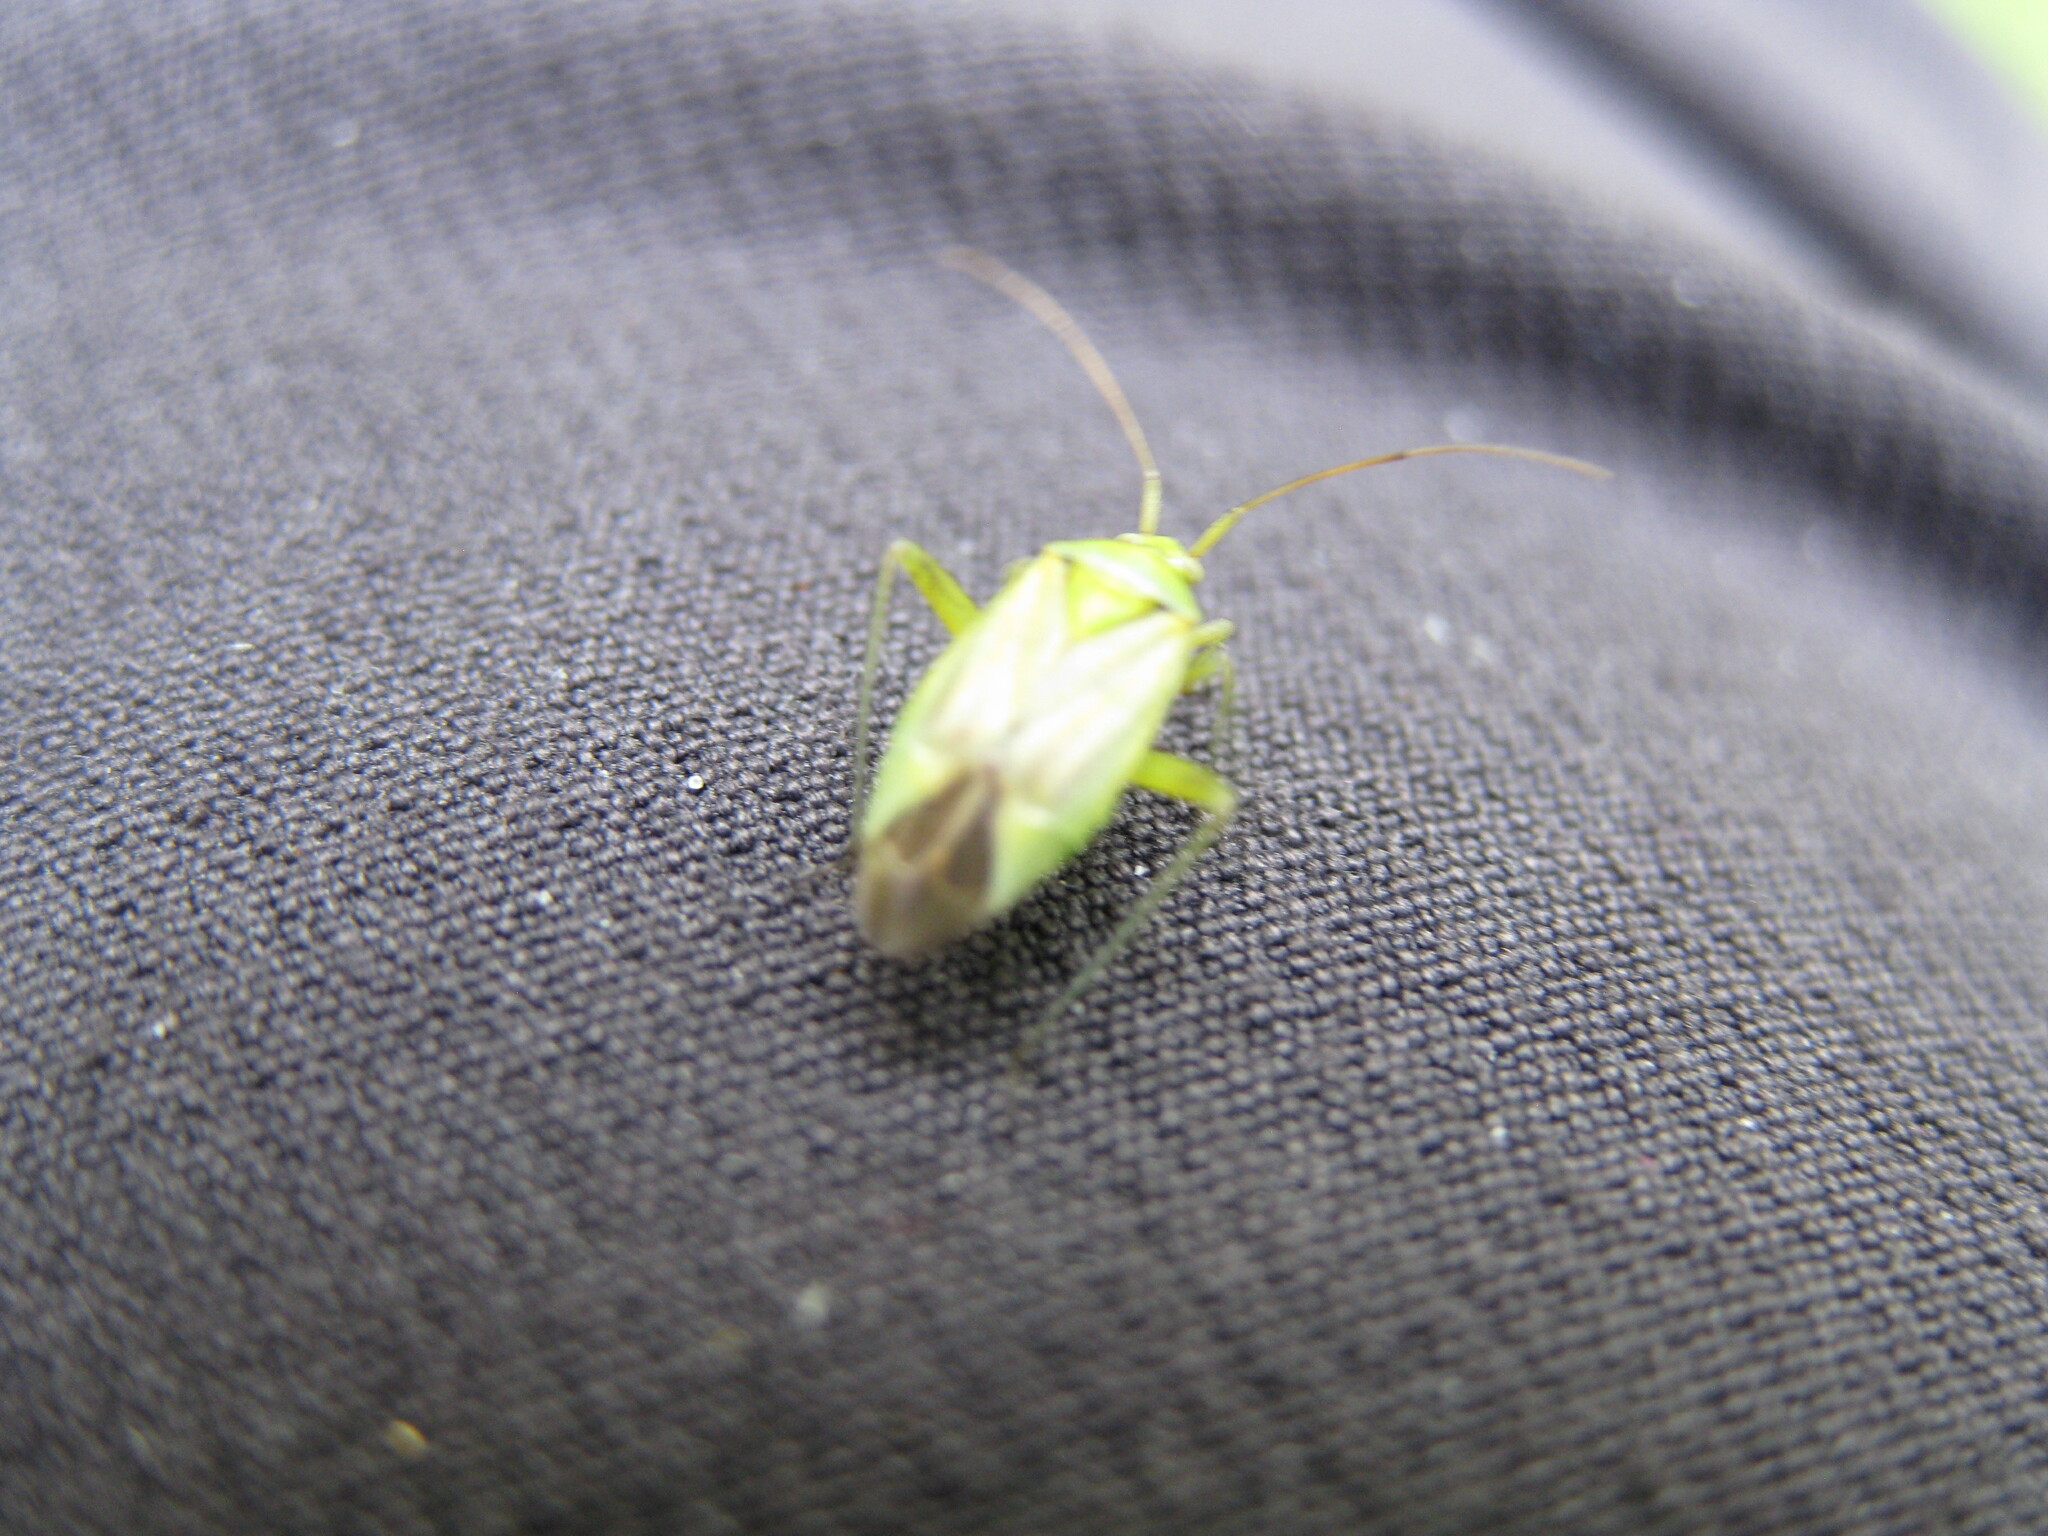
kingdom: Animalia
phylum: Arthropoda
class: Insecta
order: Hemiptera
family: Miridae
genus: Closterotomus
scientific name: Closterotomus norvegicus
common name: Plant bug
